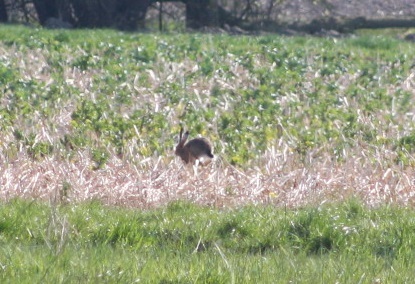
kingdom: Animalia
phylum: Chordata
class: Mammalia
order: Lagomorpha
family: Leporidae
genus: Lepus
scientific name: Lepus europaeus
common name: European hare
